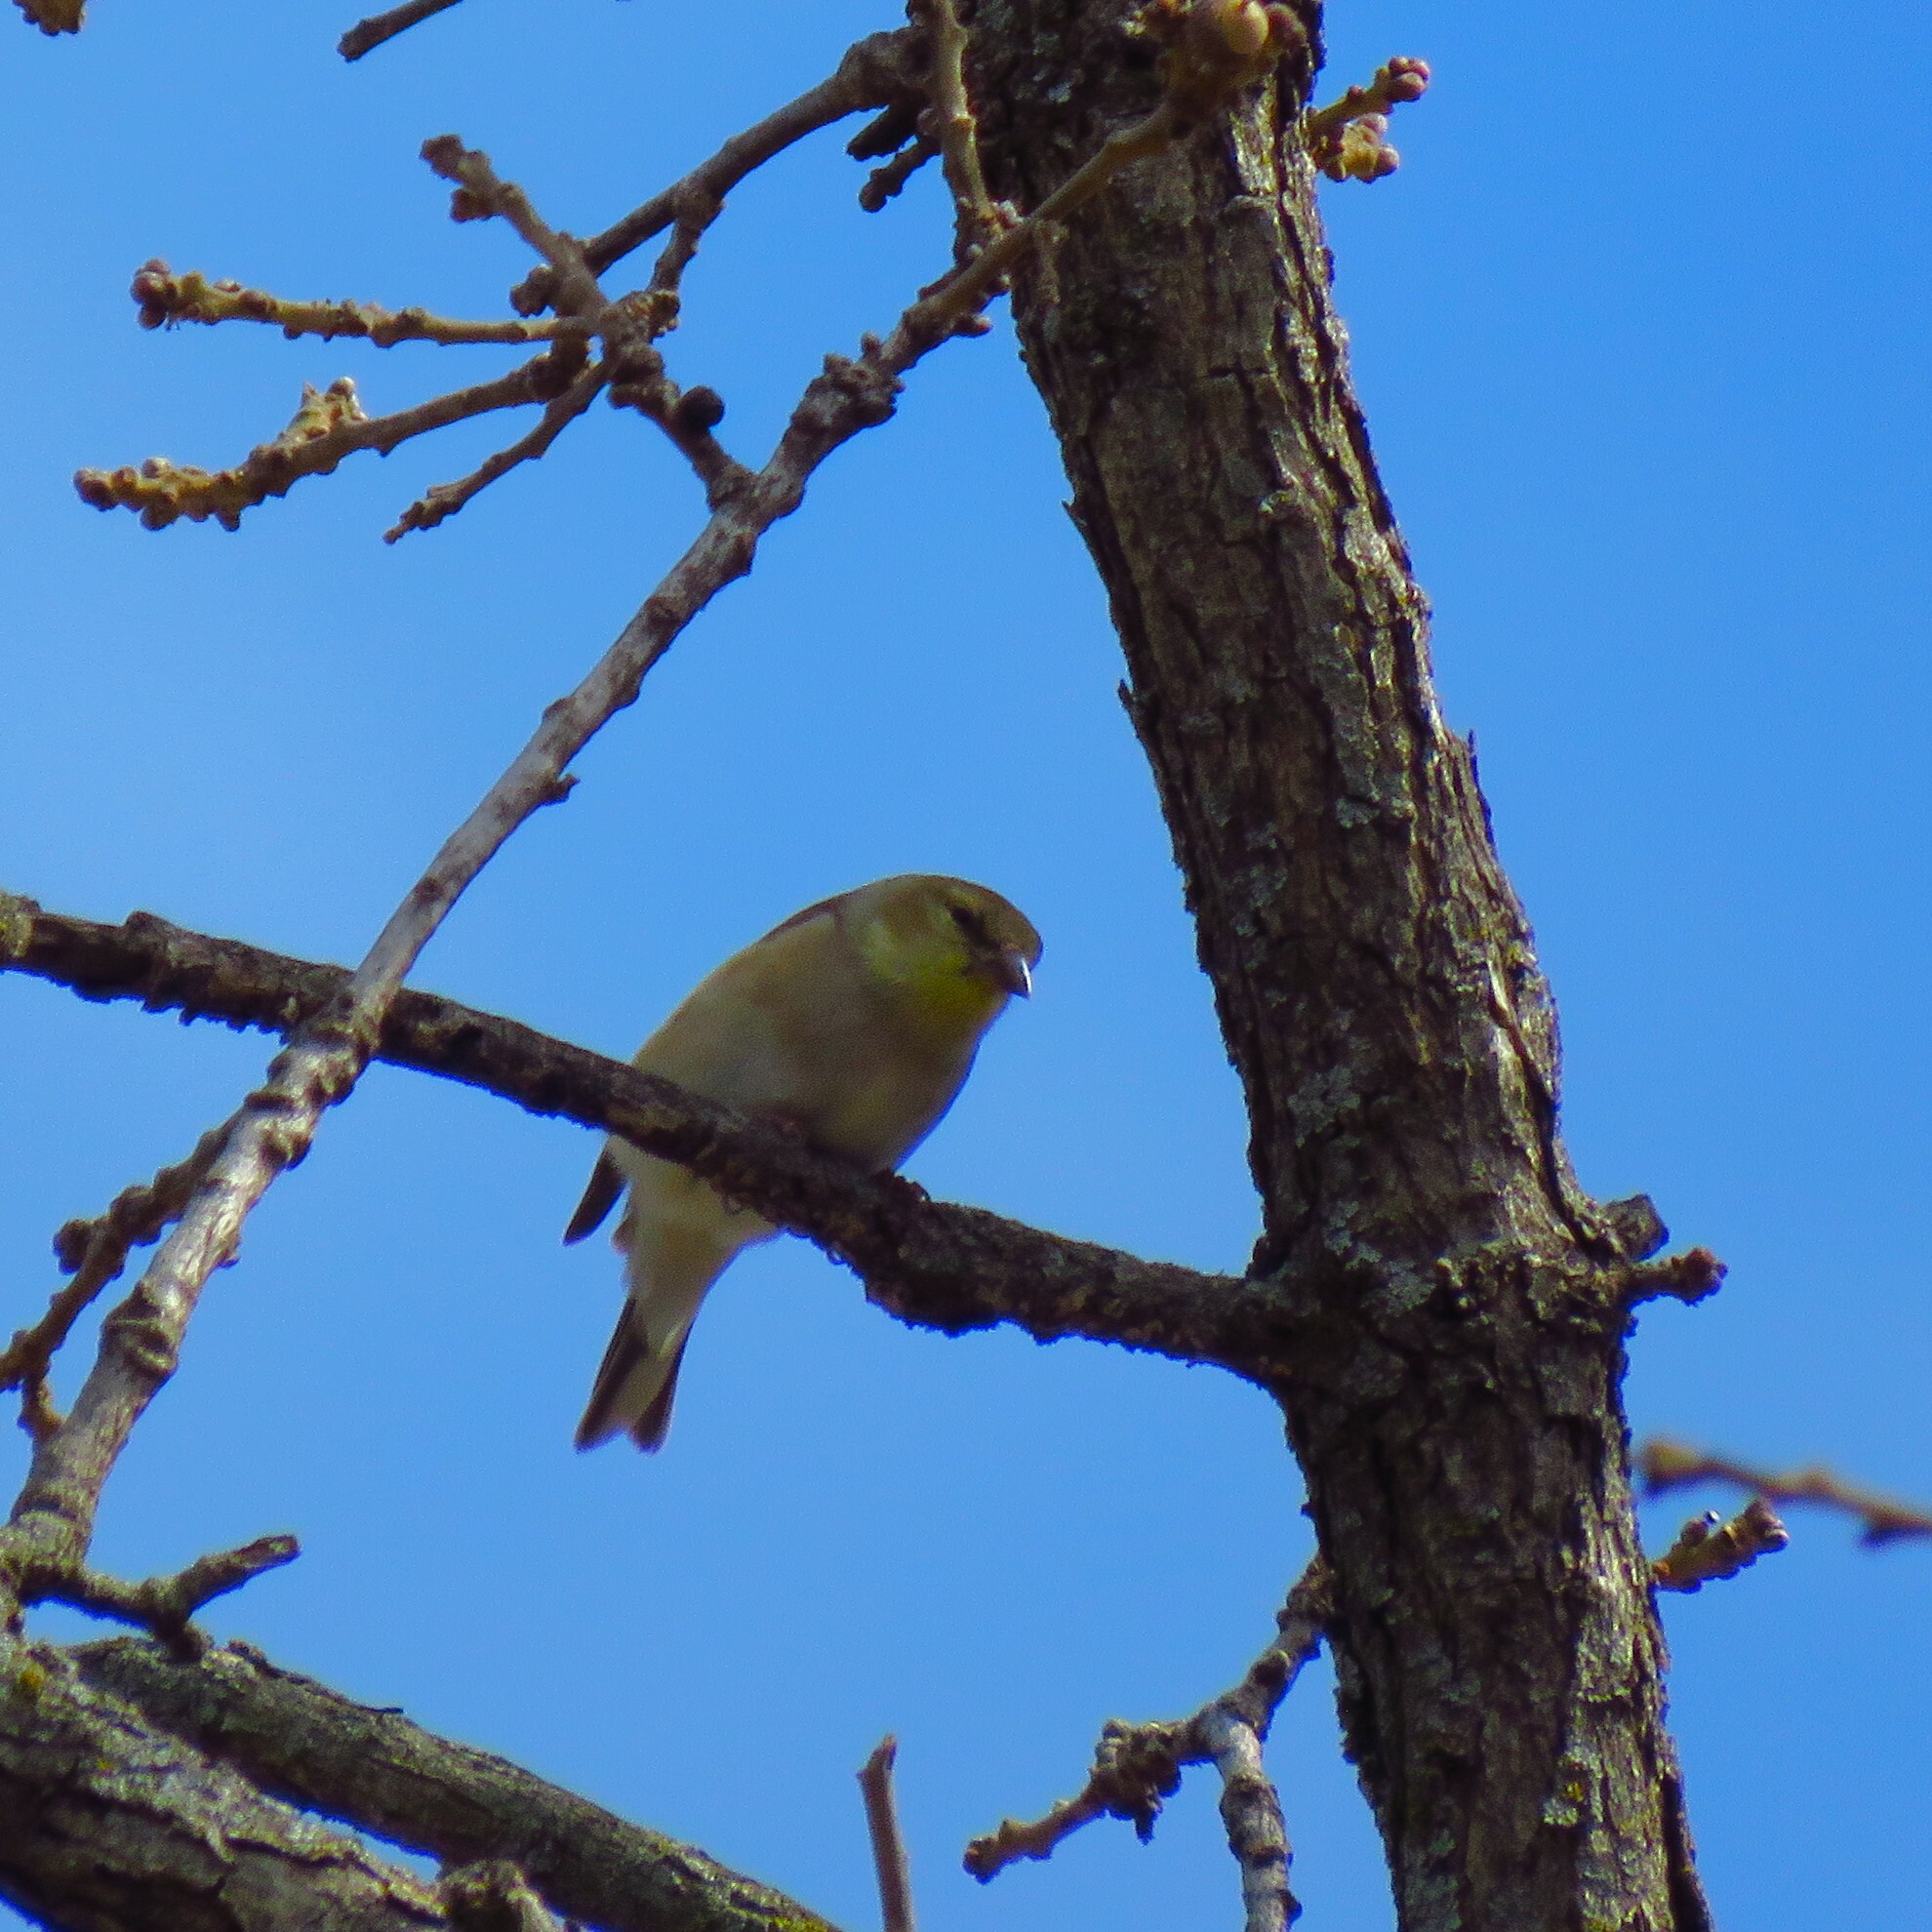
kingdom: Animalia
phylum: Chordata
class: Aves
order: Passeriformes
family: Fringillidae
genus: Spinus
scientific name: Spinus tristis
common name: American goldfinch
